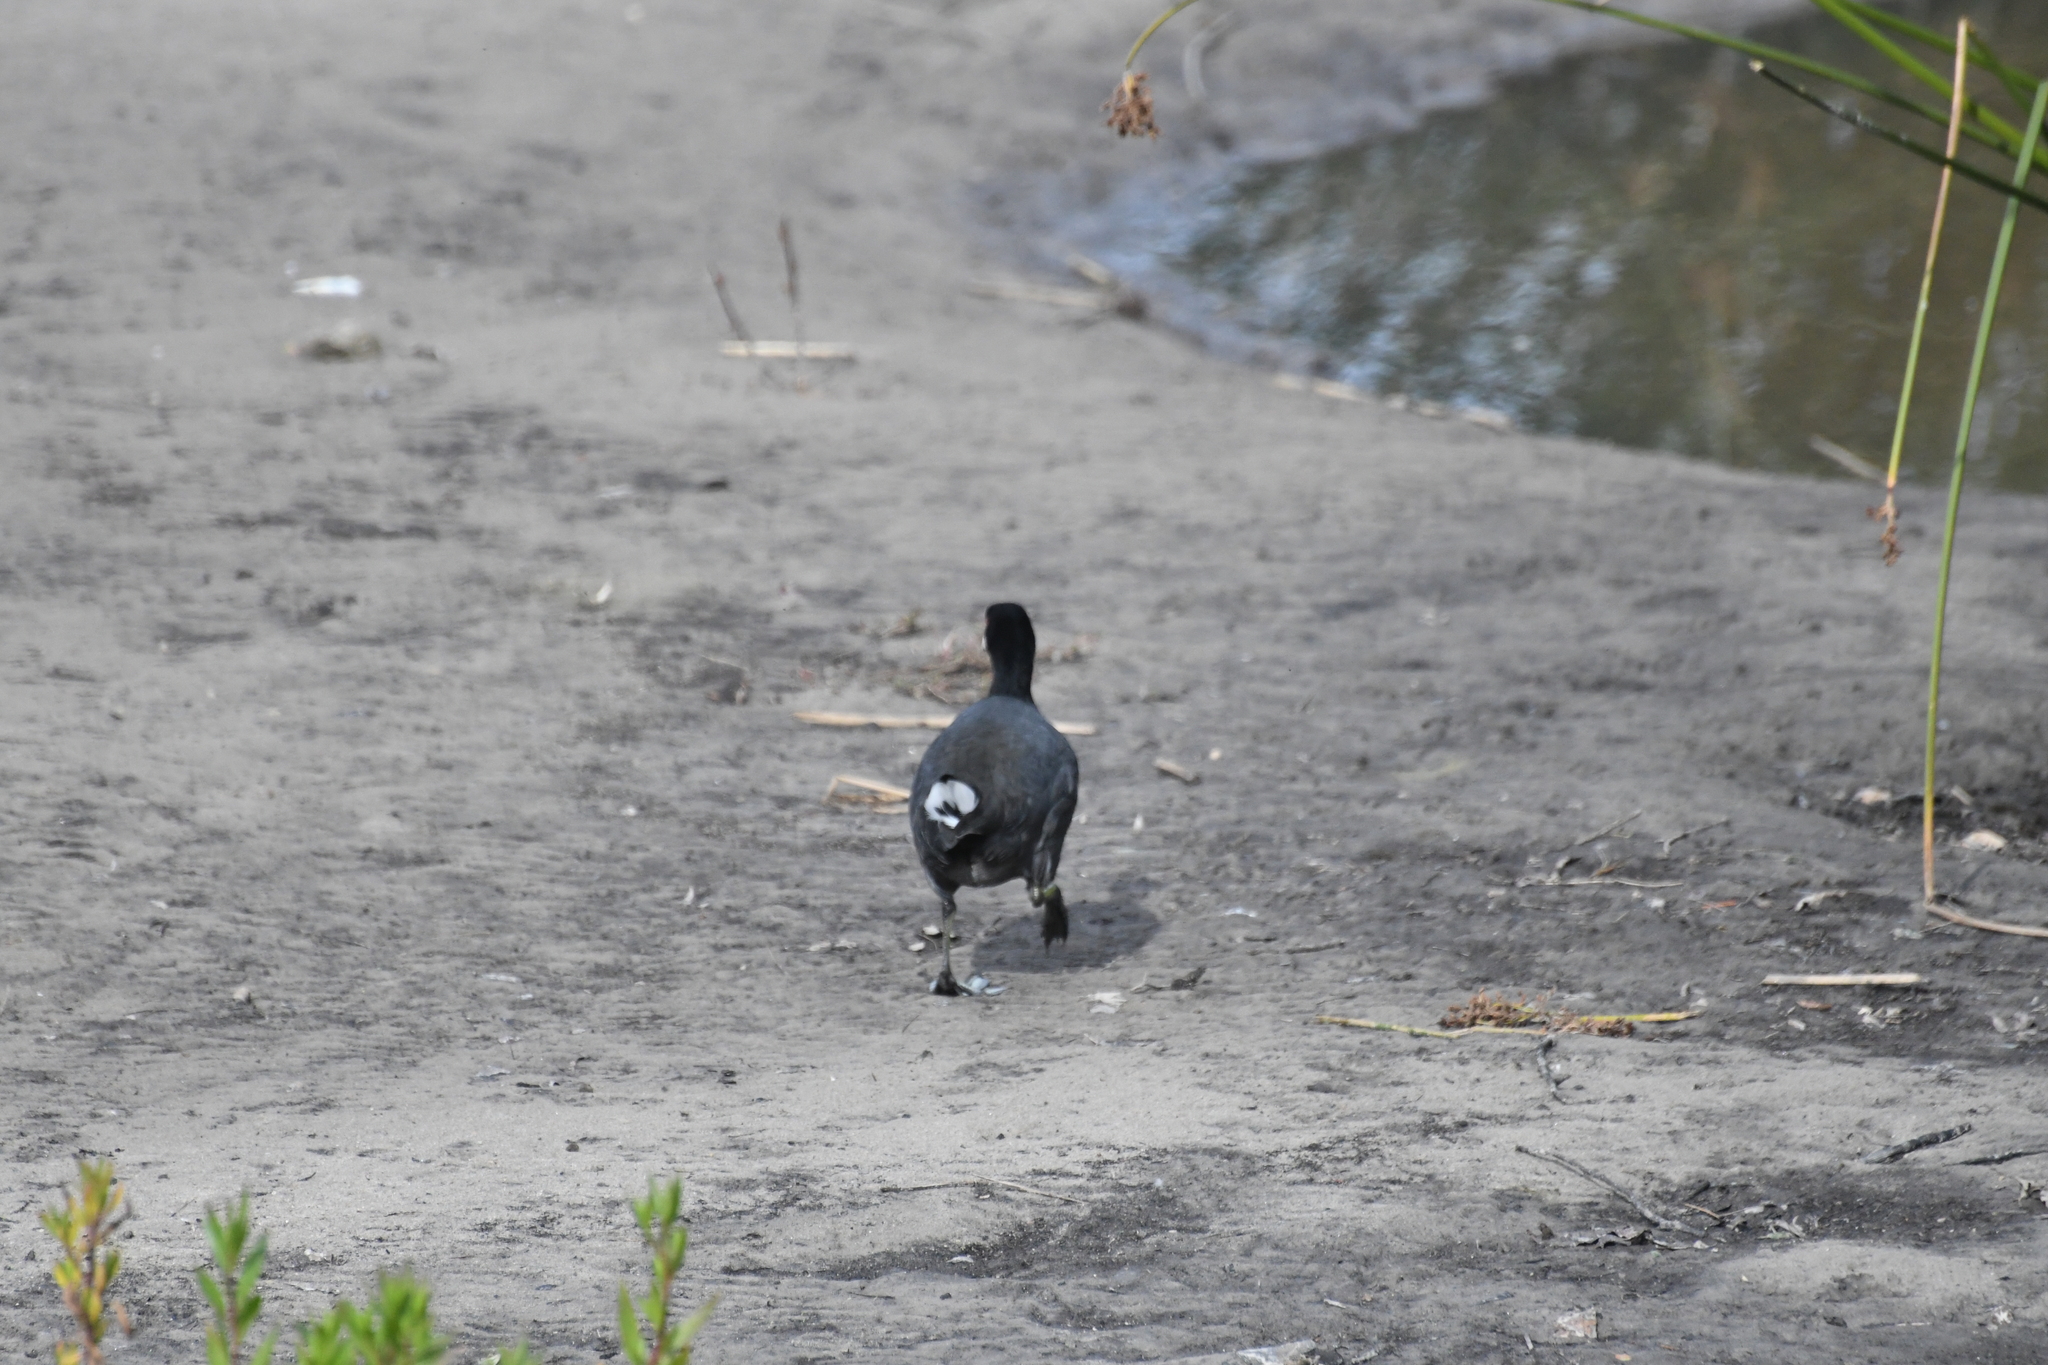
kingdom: Animalia
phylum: Chordata
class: Aves
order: Gruiformes
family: Rallidae
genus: Fulica
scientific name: Fulica americana
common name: American coot
